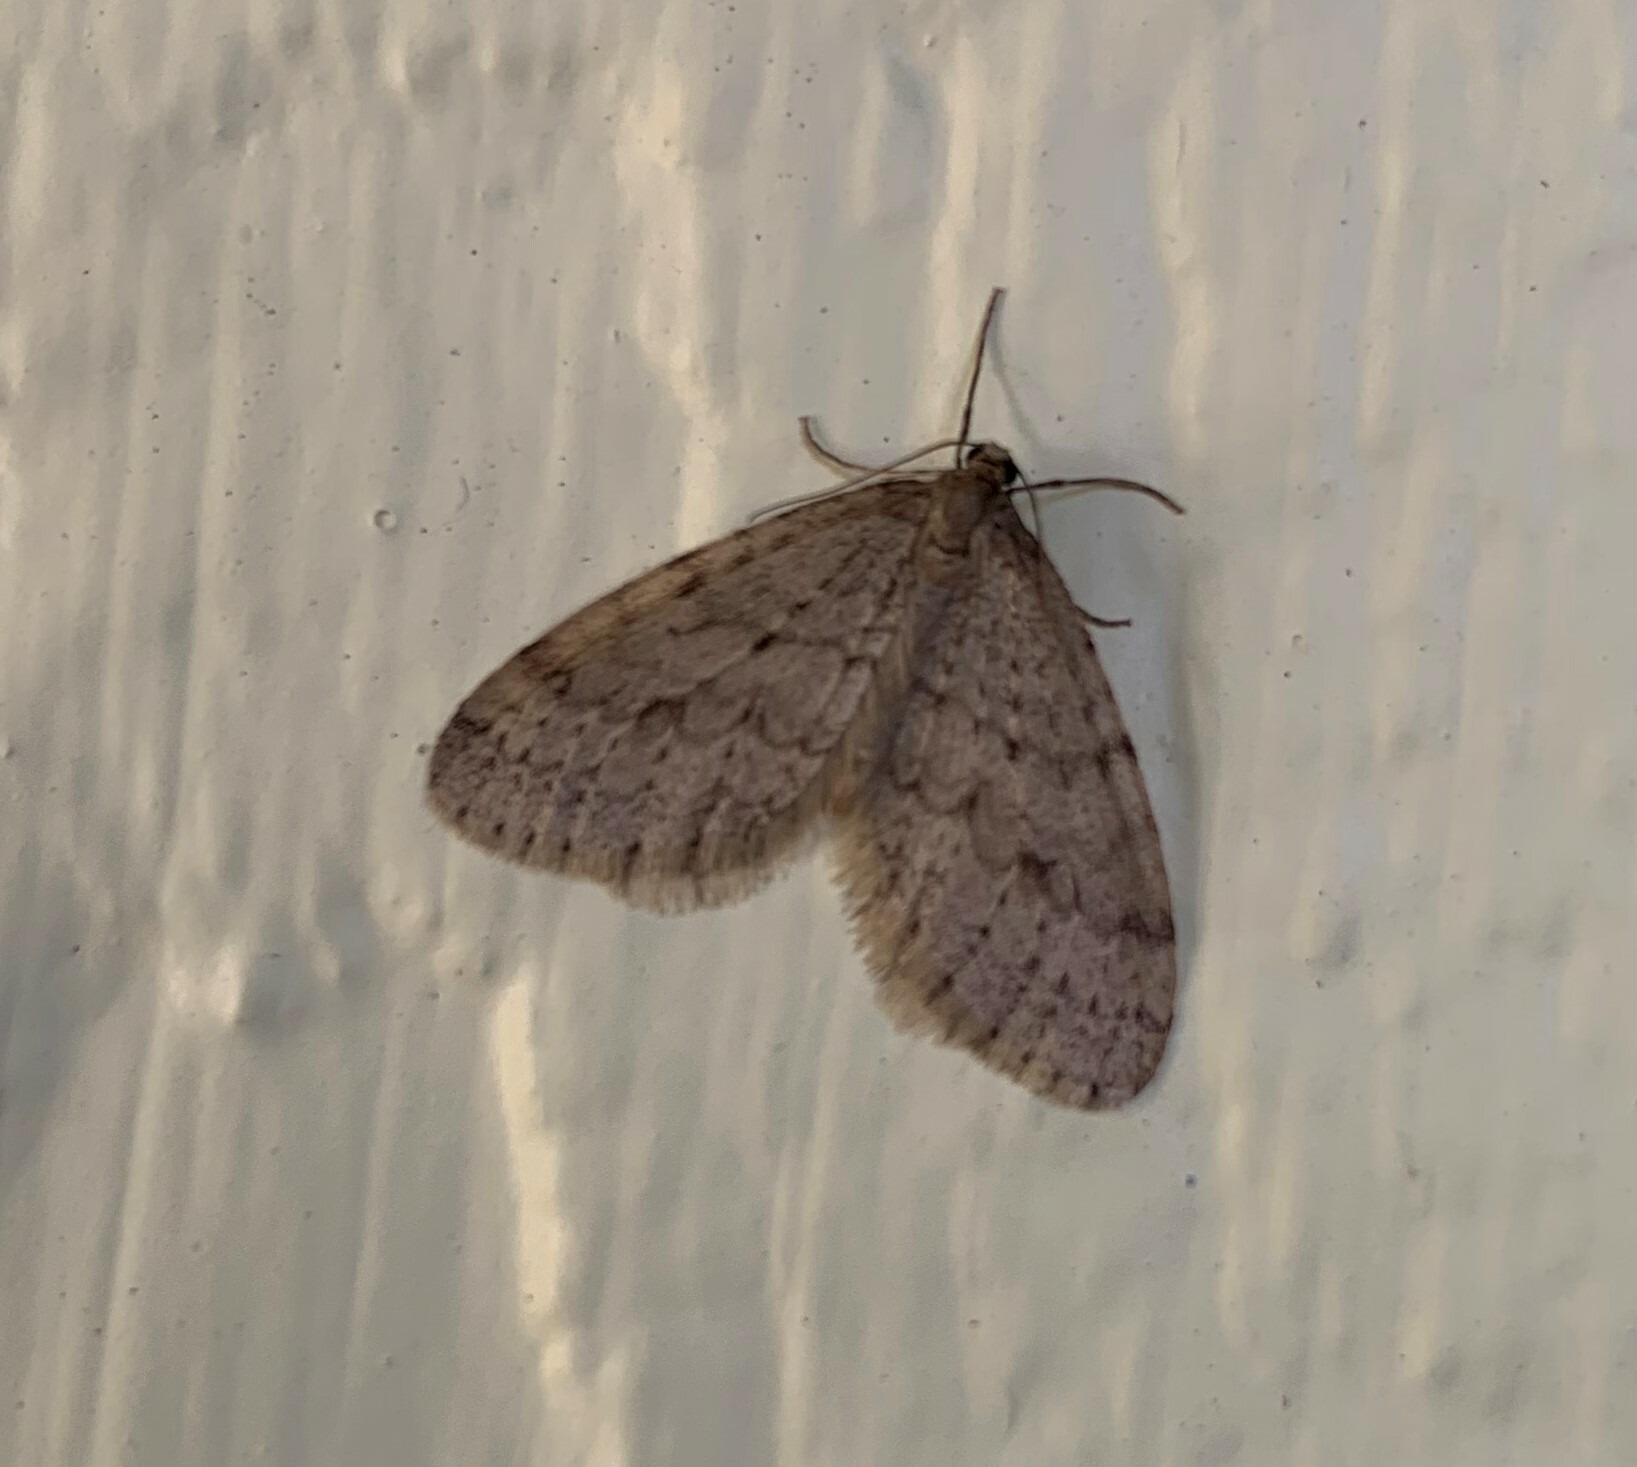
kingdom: Animalia
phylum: Arthropoda
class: Insecta
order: Lepidoptera
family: Geometridae
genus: Operophtera
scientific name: Operophtera bruceata
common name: Bruce spanworm
